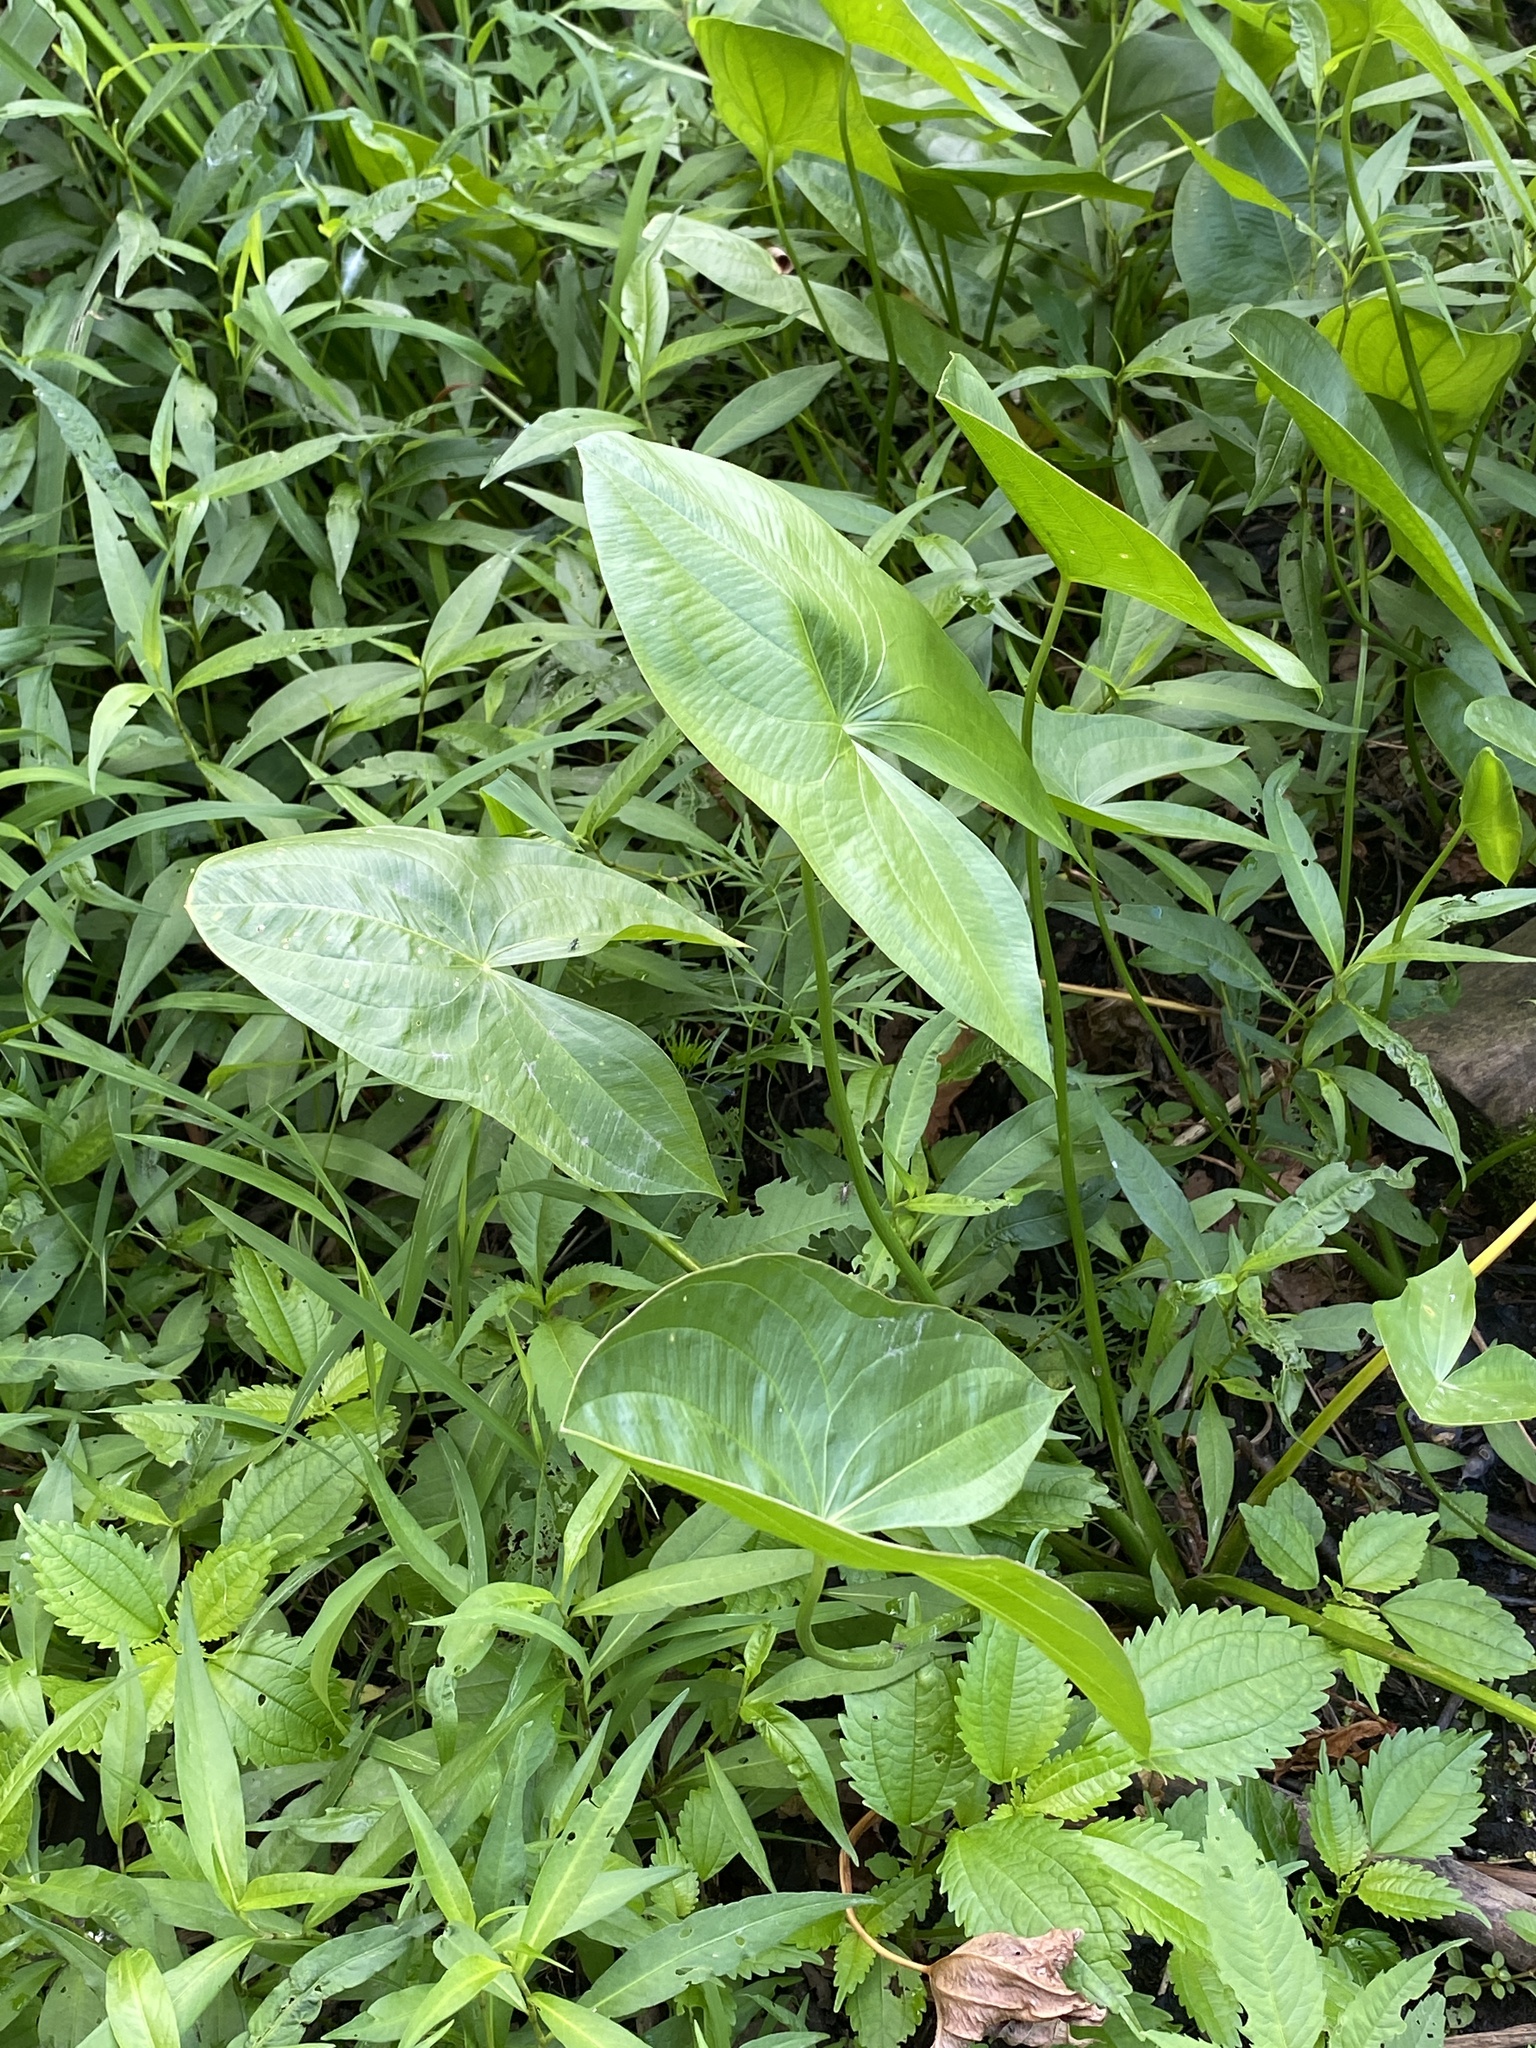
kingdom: Plantae
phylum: Tracheophyta
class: Liliopsida
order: Alismatales
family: Alismataceae
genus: Sagittaria
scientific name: Sagittaria latifolia
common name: Duck-potato
